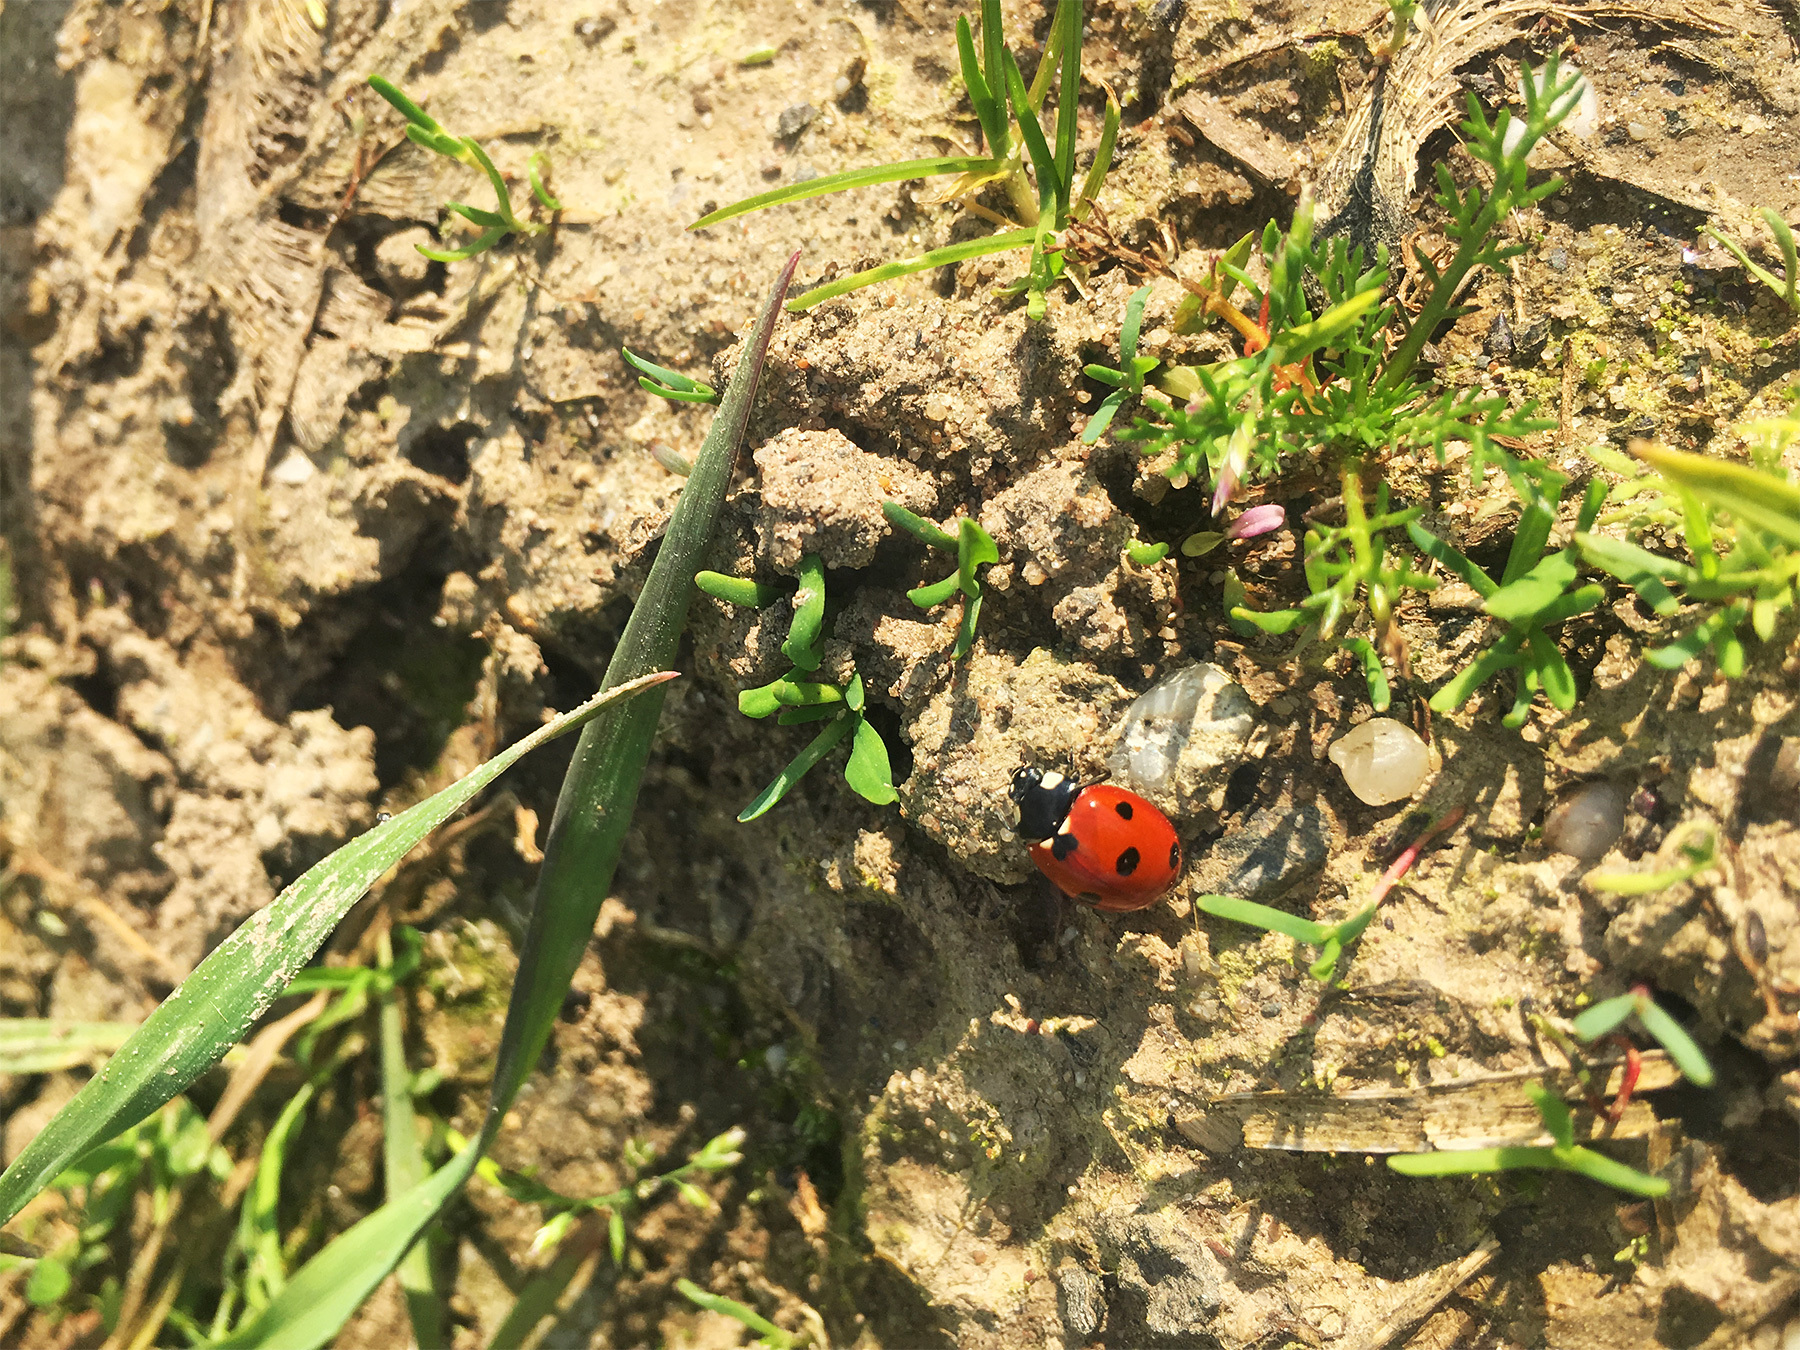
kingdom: Animalia
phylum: Arthropoda
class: Insecta
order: Coleoptera
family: Coccinellidae
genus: Coccinella
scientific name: Coccinella septempunctata
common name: Sevenspotted lady beetle
